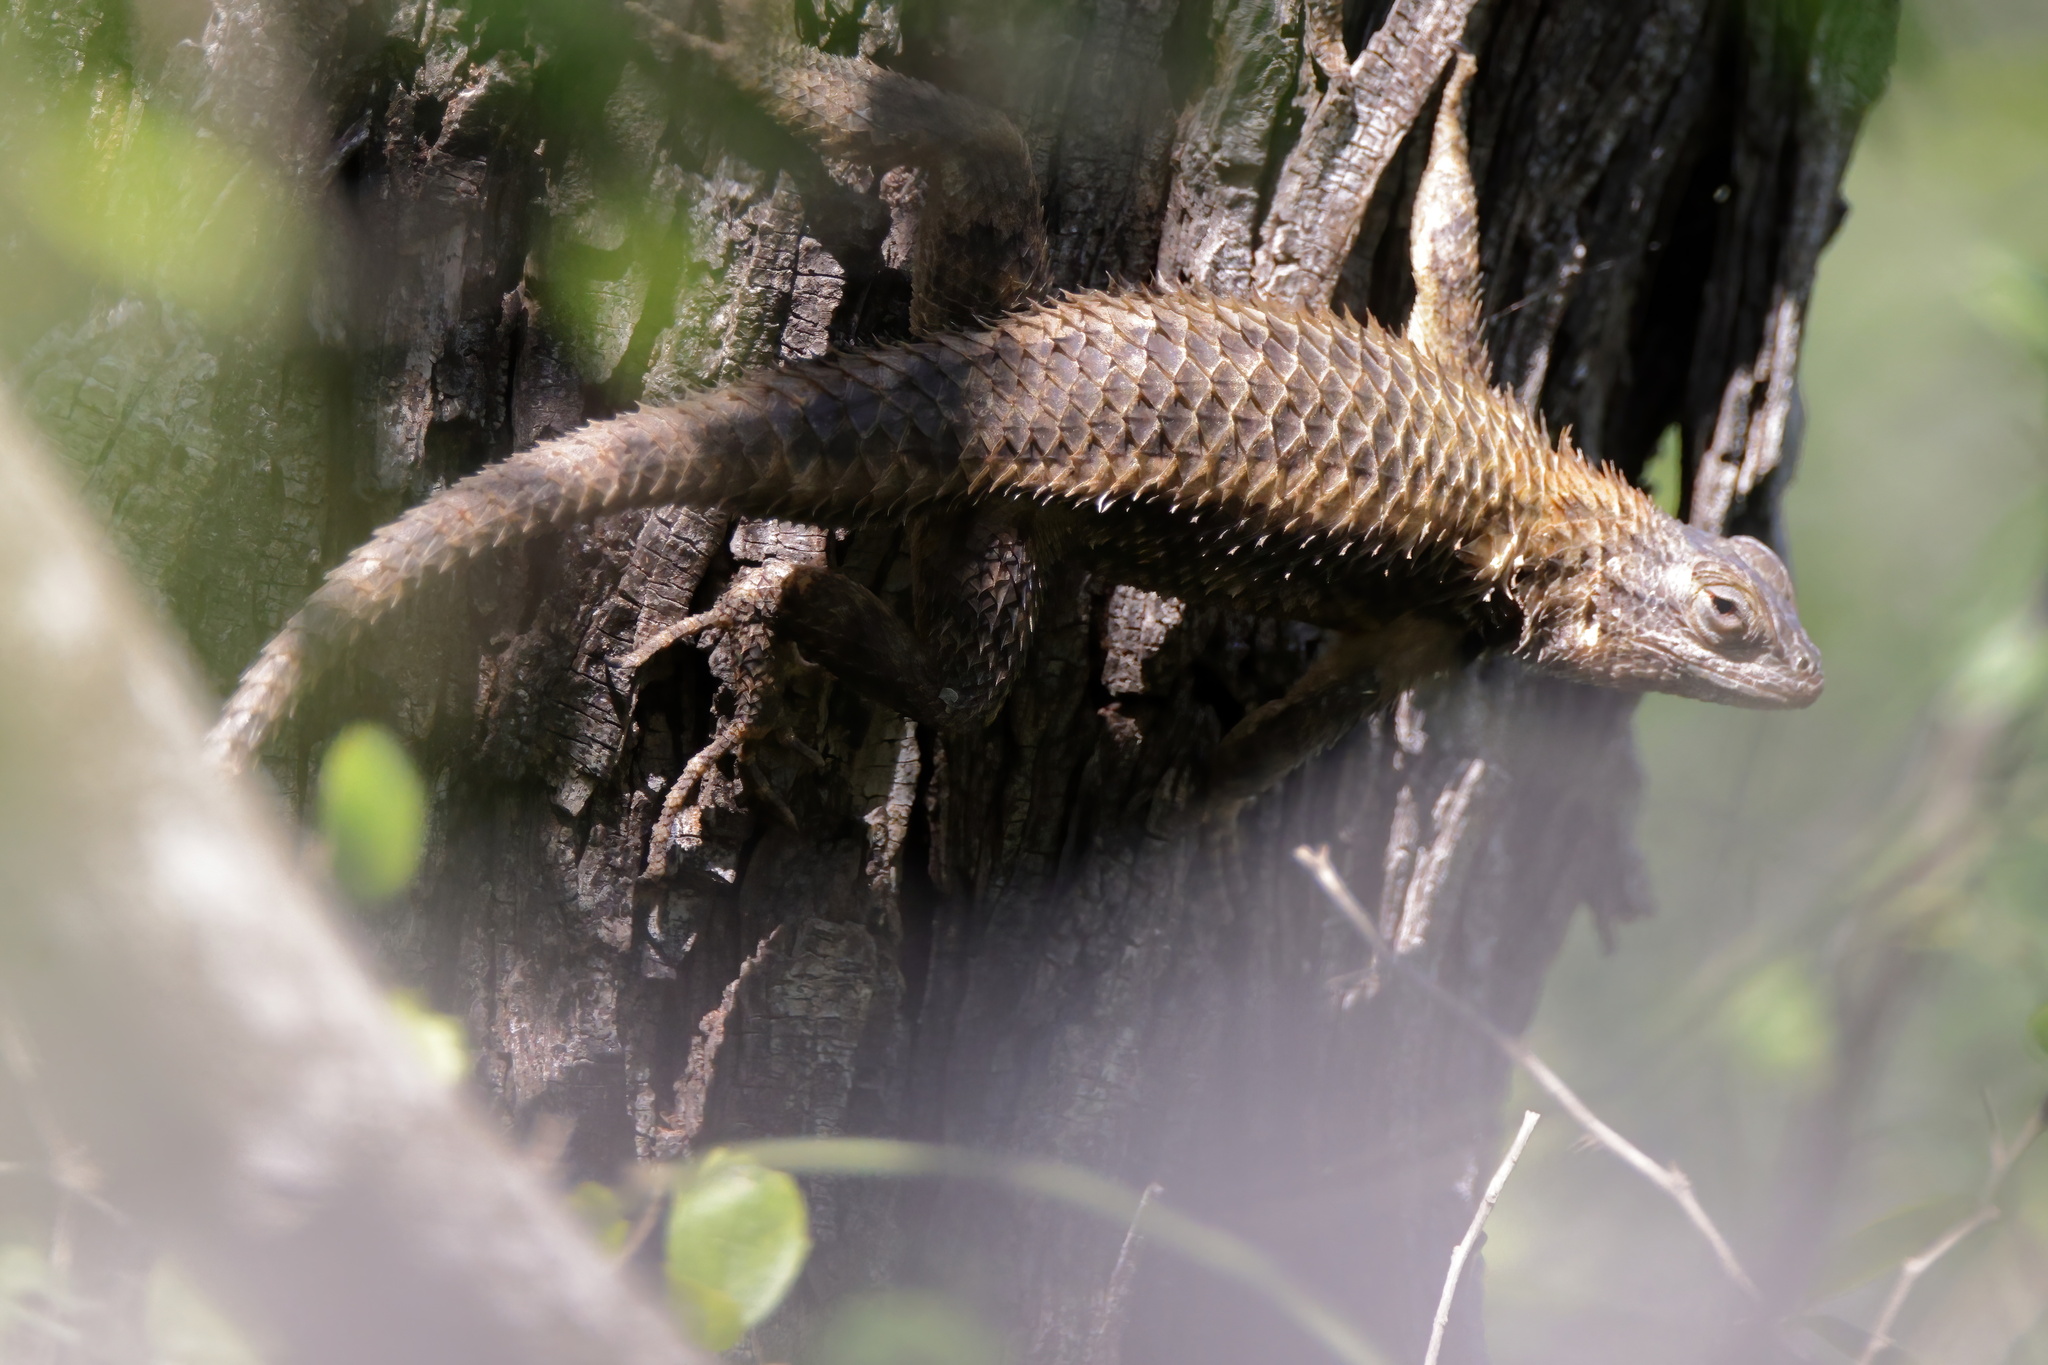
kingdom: Animalia
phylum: Chordata
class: Squamata
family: Phrynosomatidae
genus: Sceloporus
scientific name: Sceloporus olivaceus
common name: Texas spiny lizard
